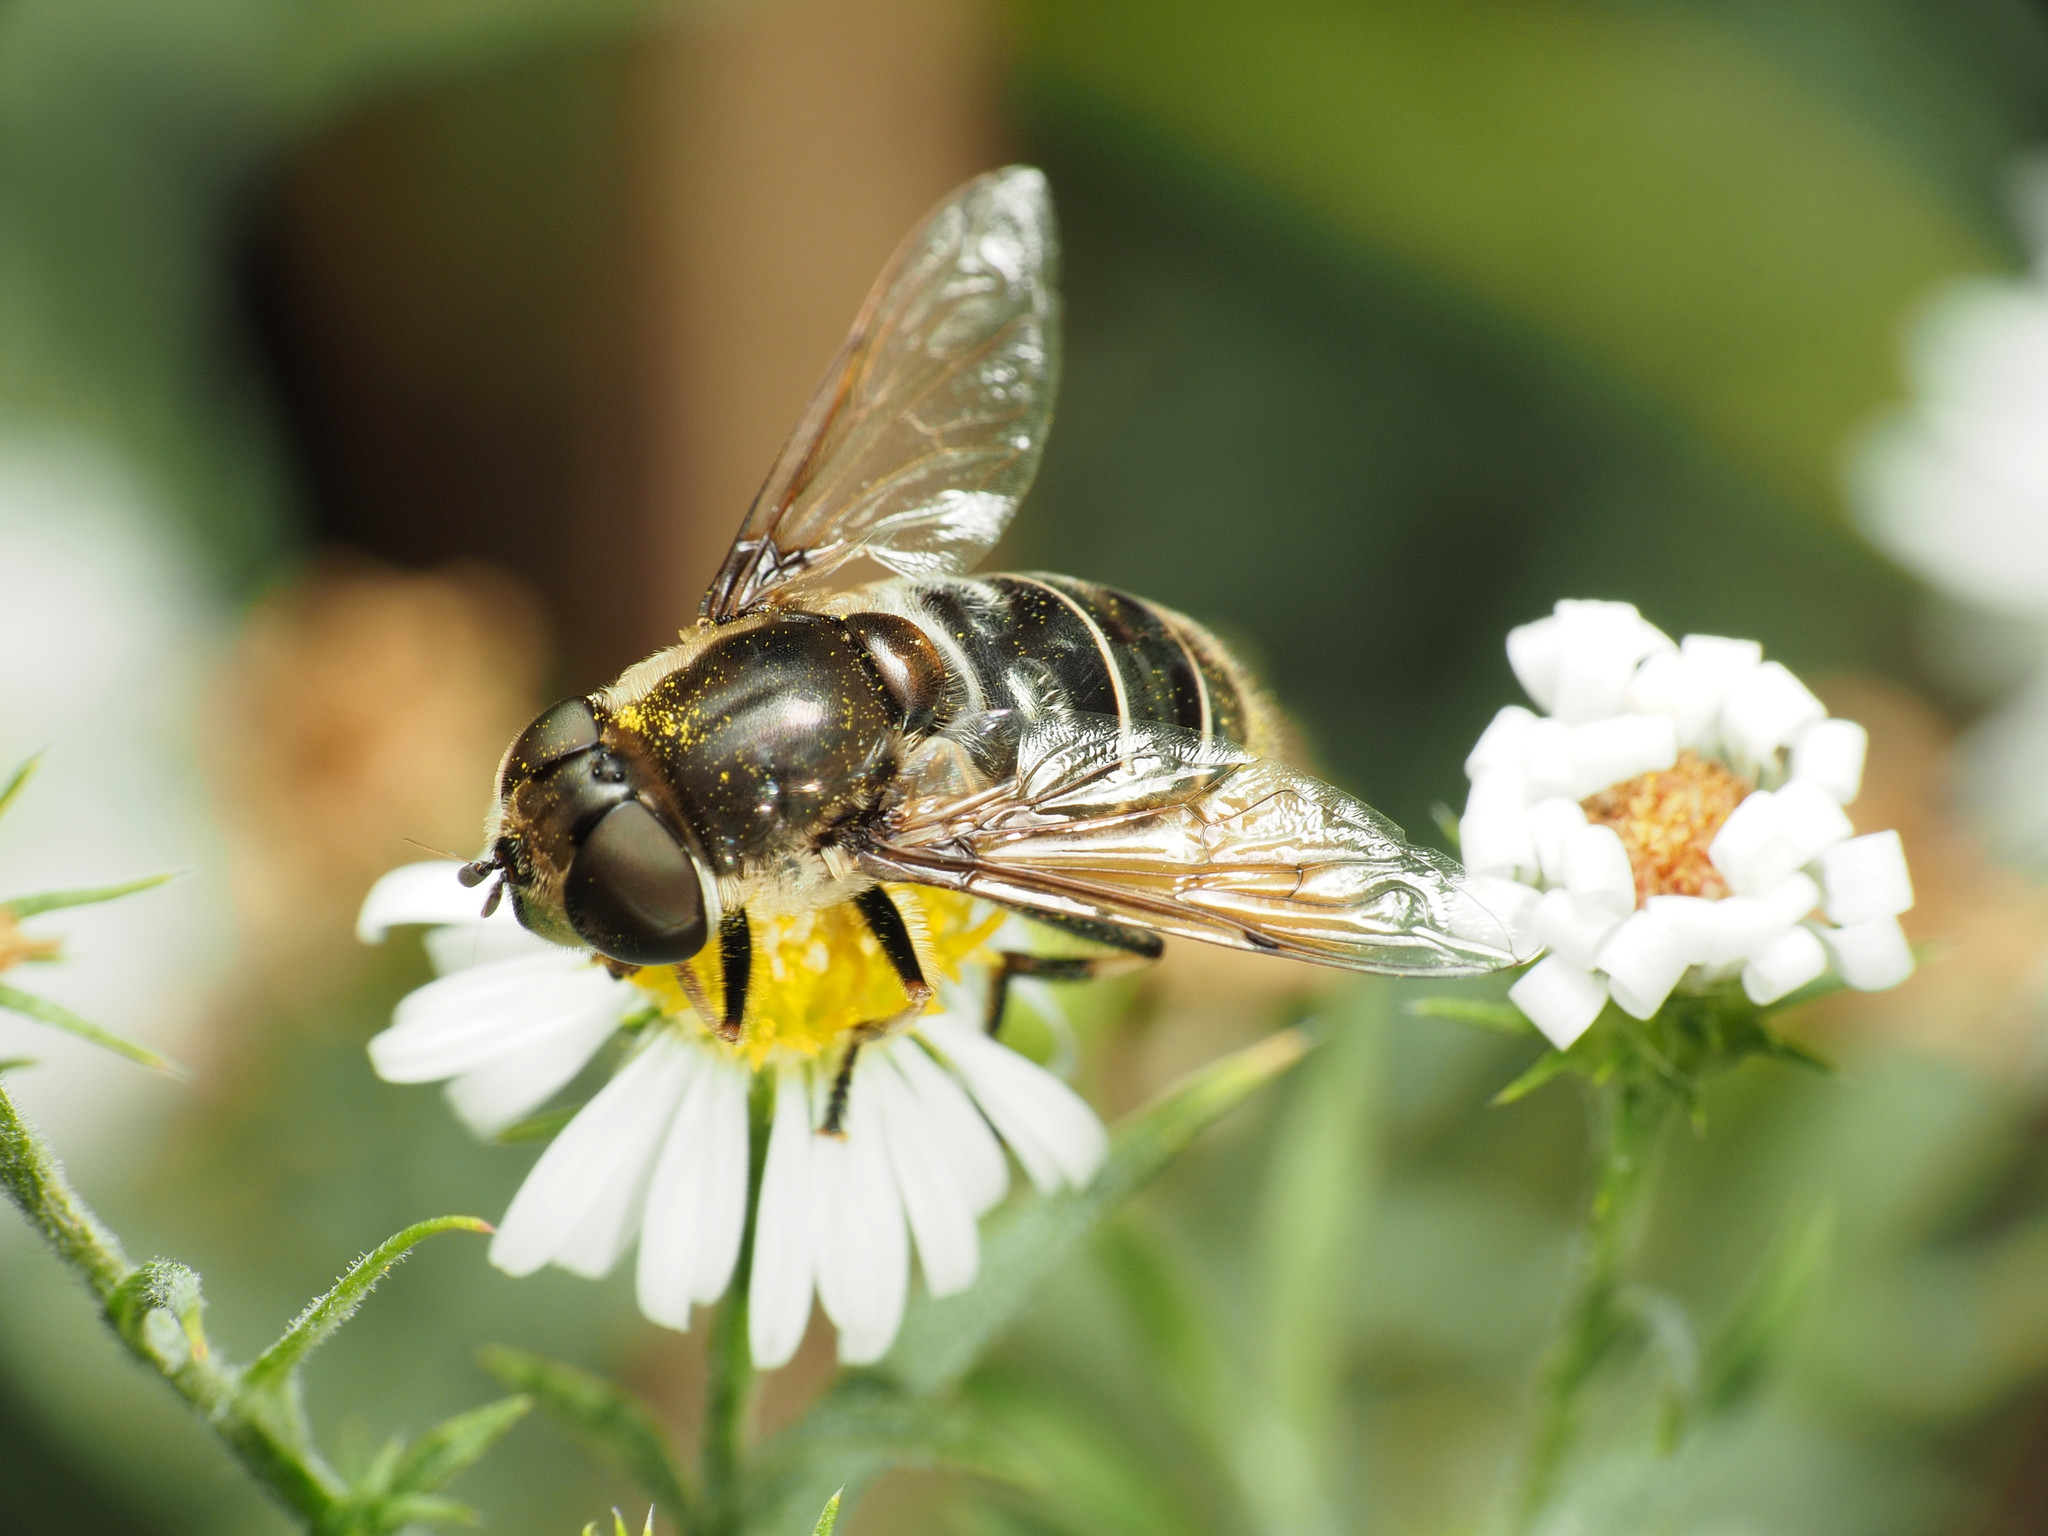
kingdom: Animalia
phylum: Arthropoda
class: Insecta
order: Diptera
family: Syrphidae
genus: Eristalis
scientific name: Eristalis dimidiata
